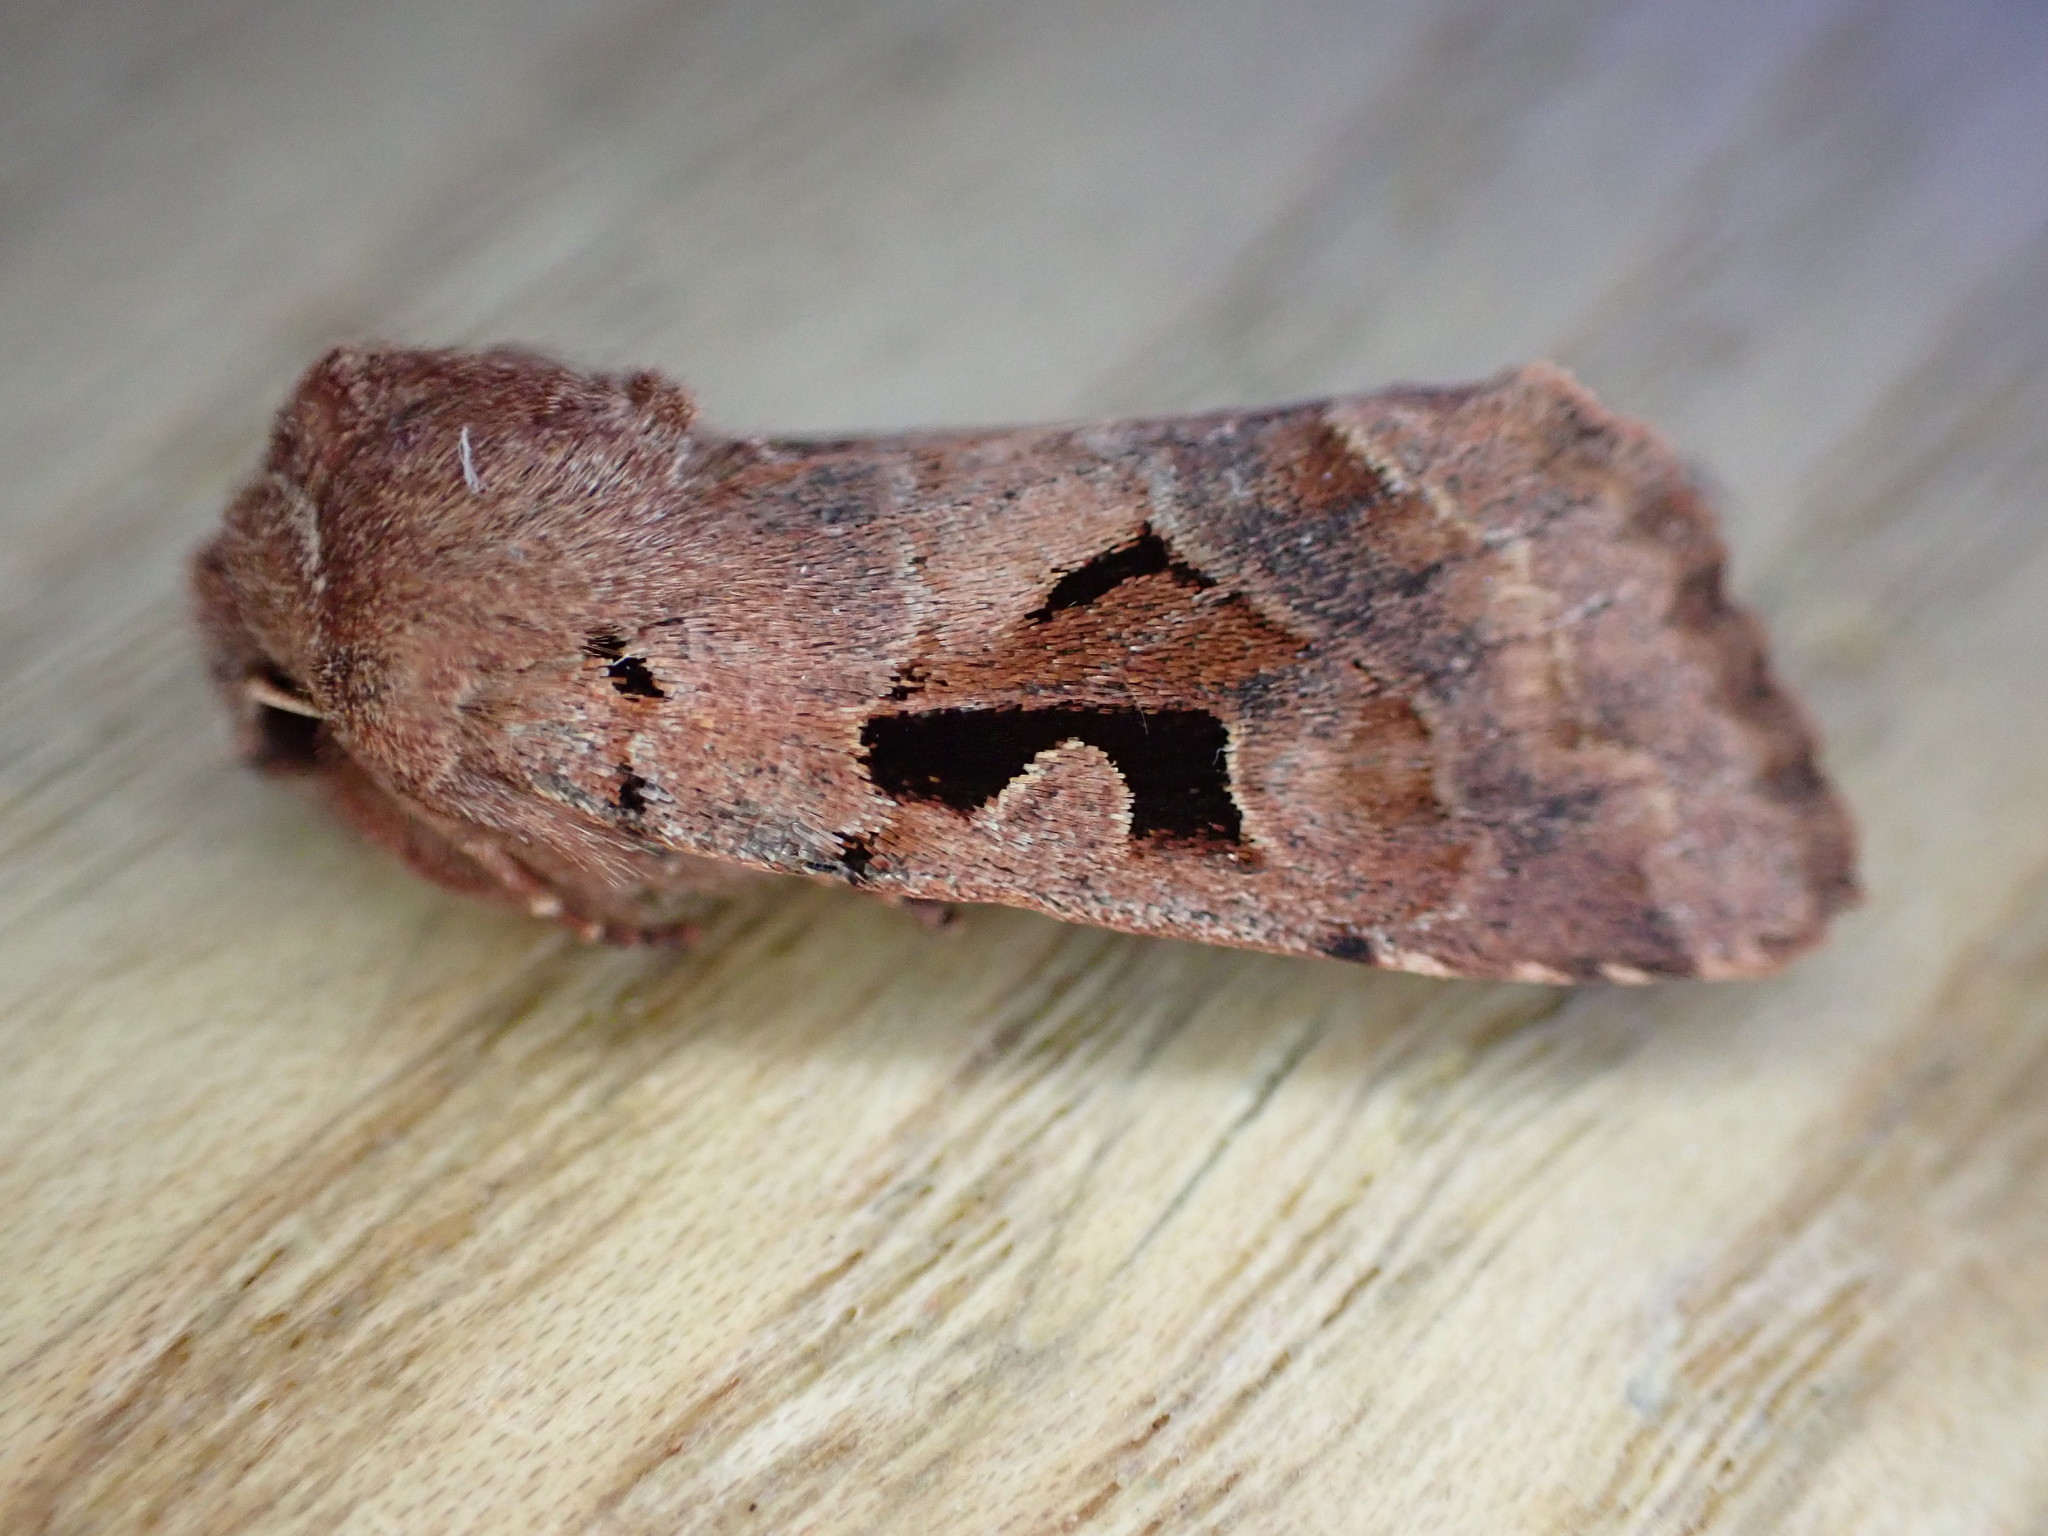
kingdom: Animalia
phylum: Arthropoda
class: Insecta
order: Lepidoptera
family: Noctuidae
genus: Orthosia
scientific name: Orthosia gothica
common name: Hebrew character
